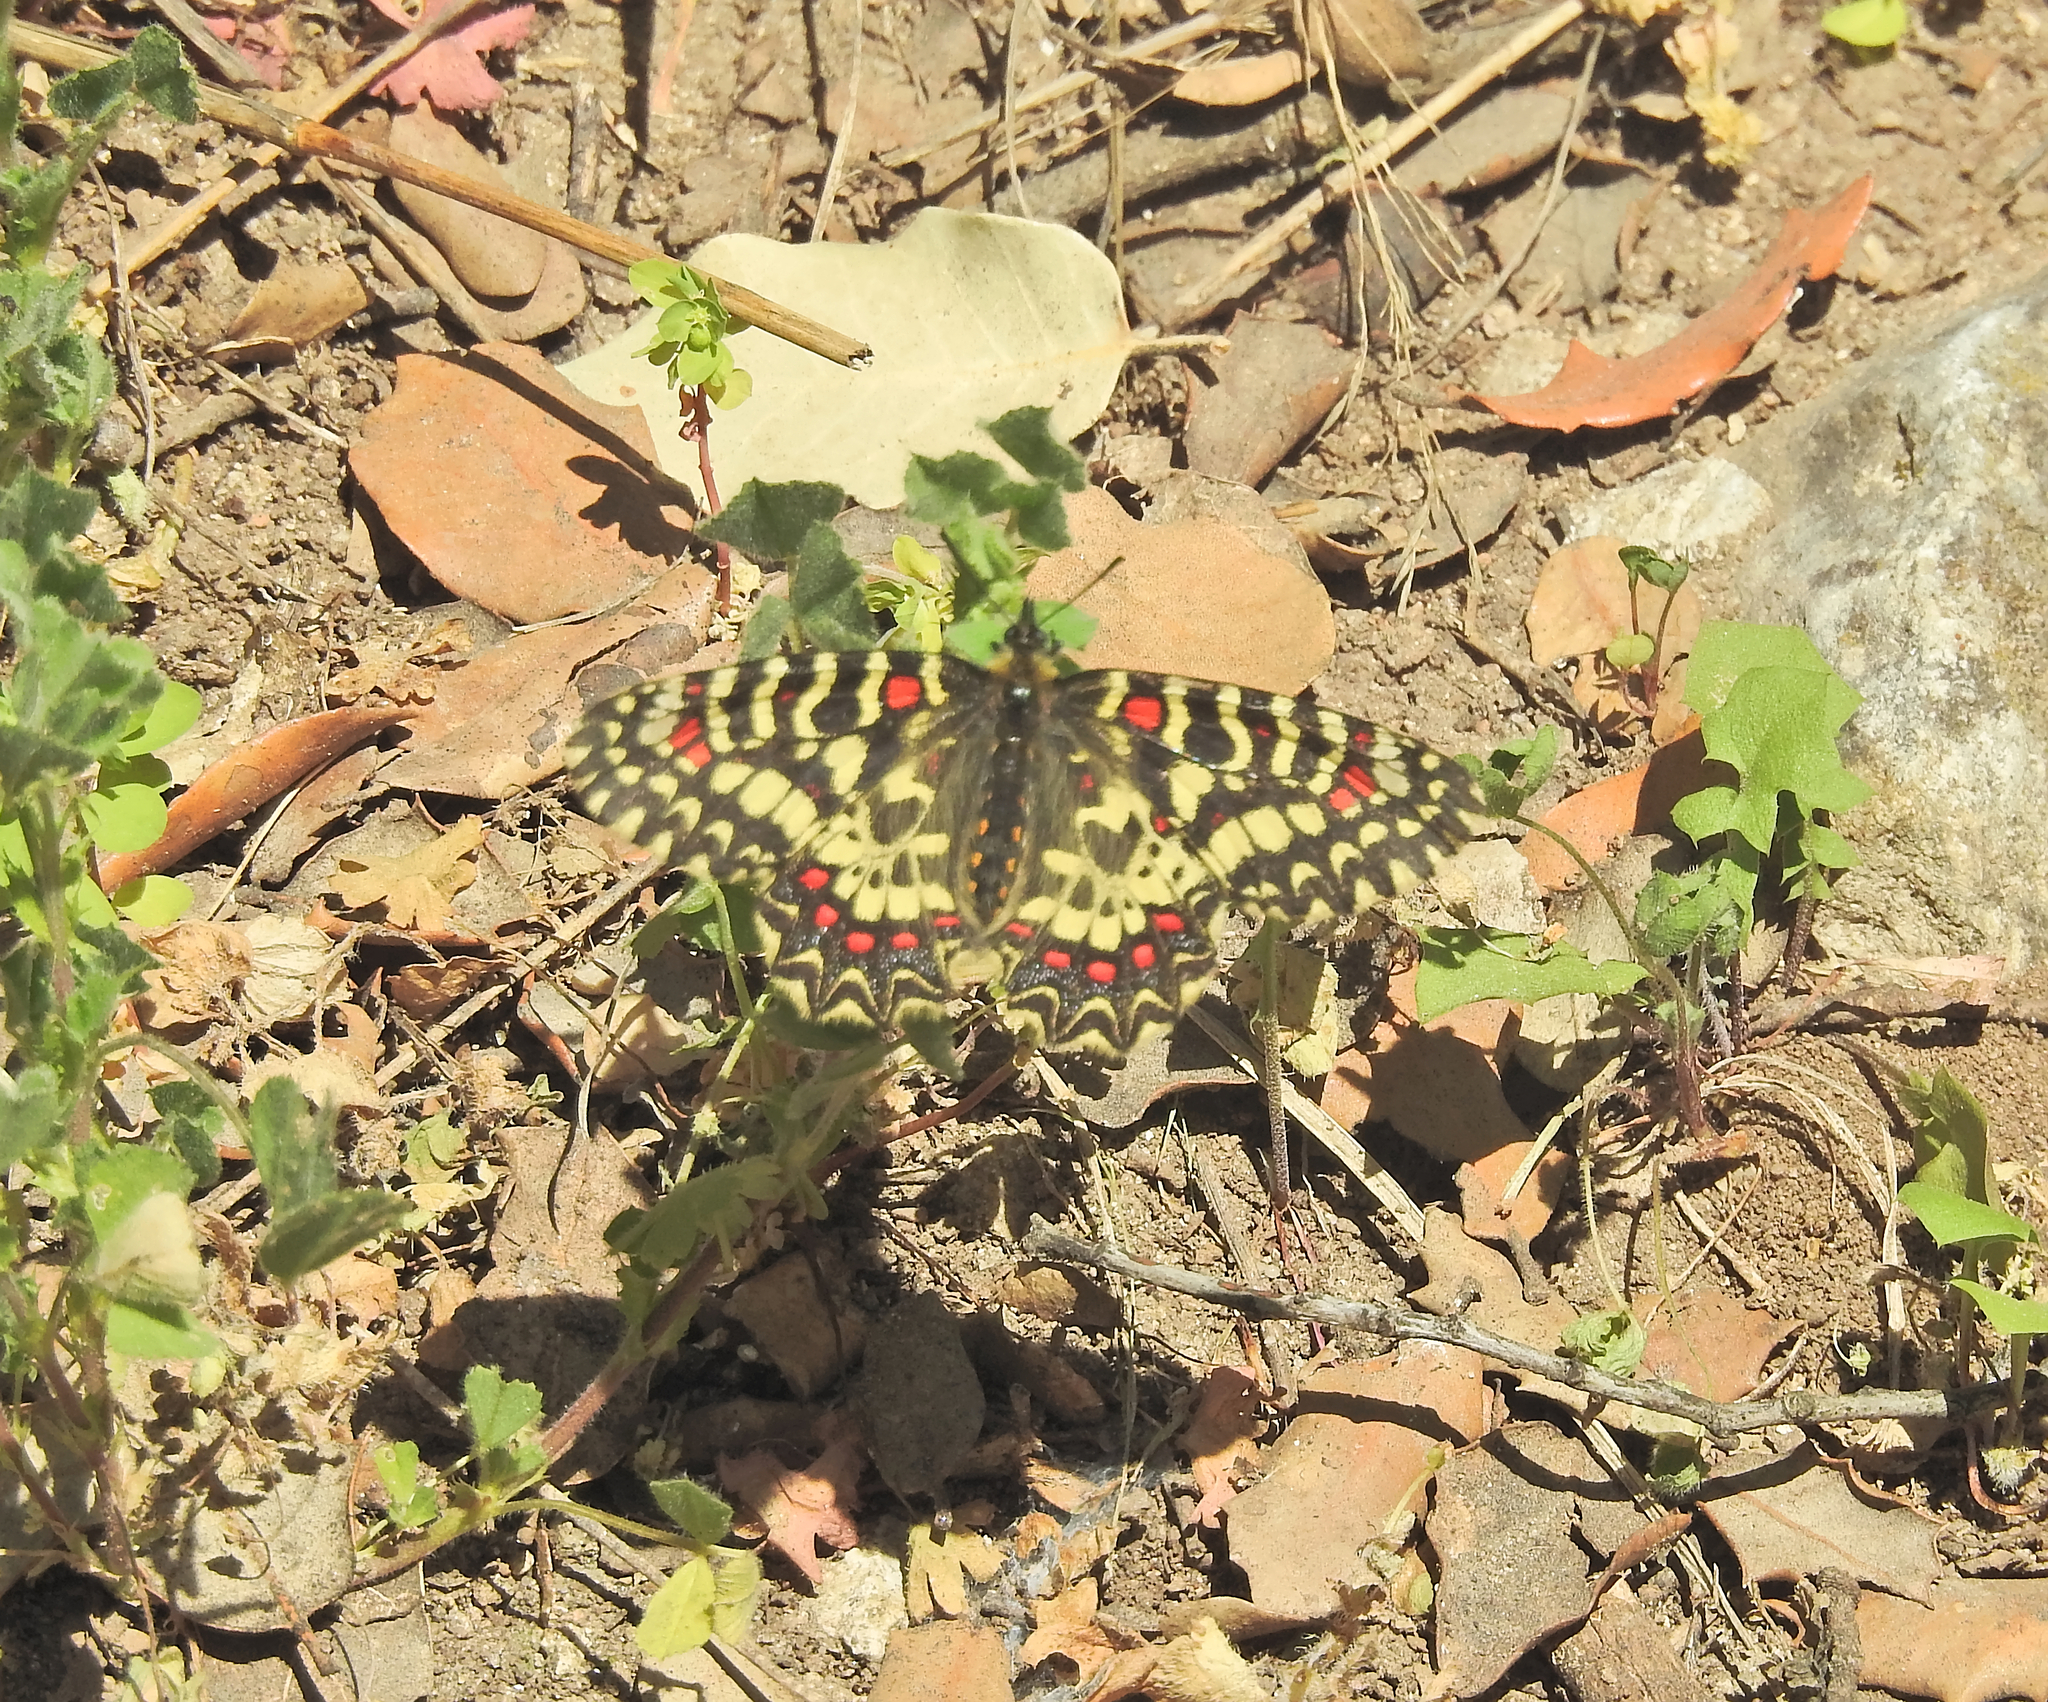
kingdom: Animalia
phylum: Arthropoda
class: Insecta
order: Lepidoptera
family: Papilionidae
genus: Zerynthia
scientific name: Zerynthia rumina
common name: Spanish festoon
